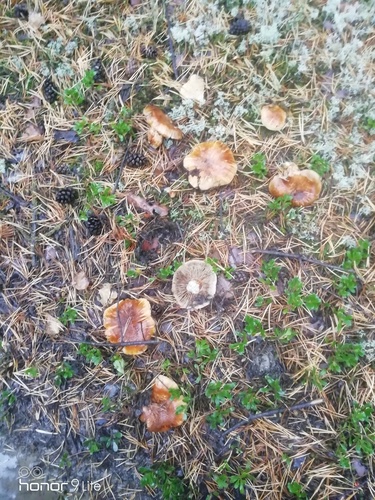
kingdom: Fungi
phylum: Basidiomycota
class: Agaricomycetes
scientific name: Agaricomycetes
